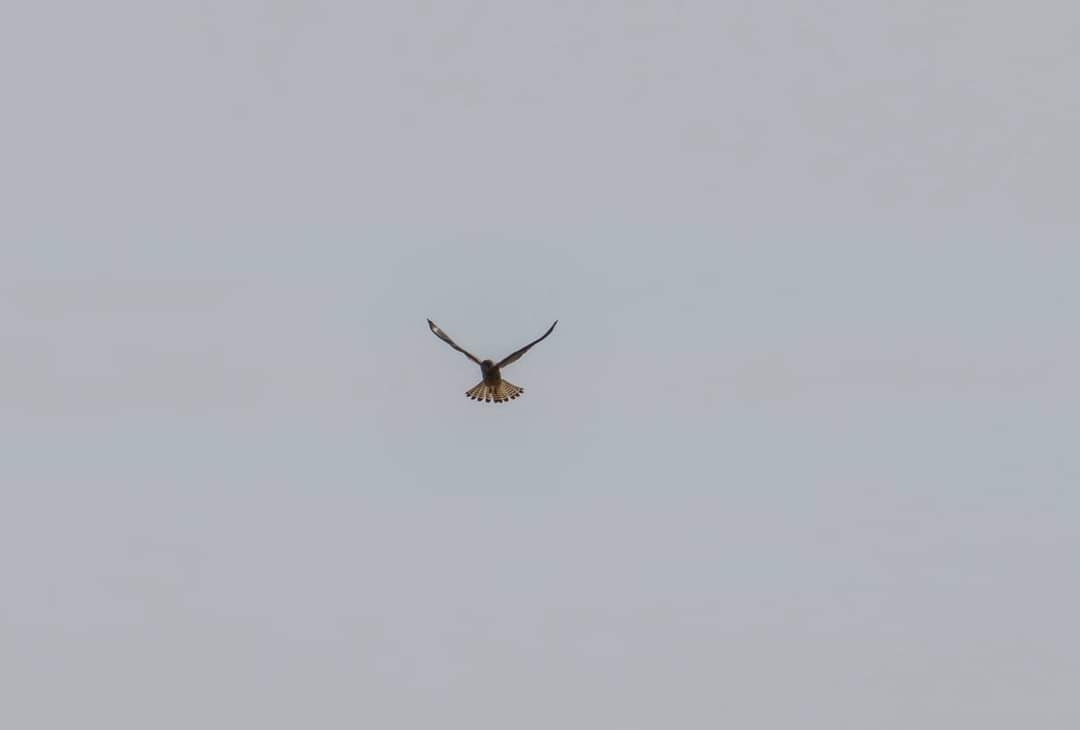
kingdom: Animalia
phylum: Chordata
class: Aves
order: Falconiformes
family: Falconidae
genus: Falco
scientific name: Falco tinnunculus
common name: Common kestrel
